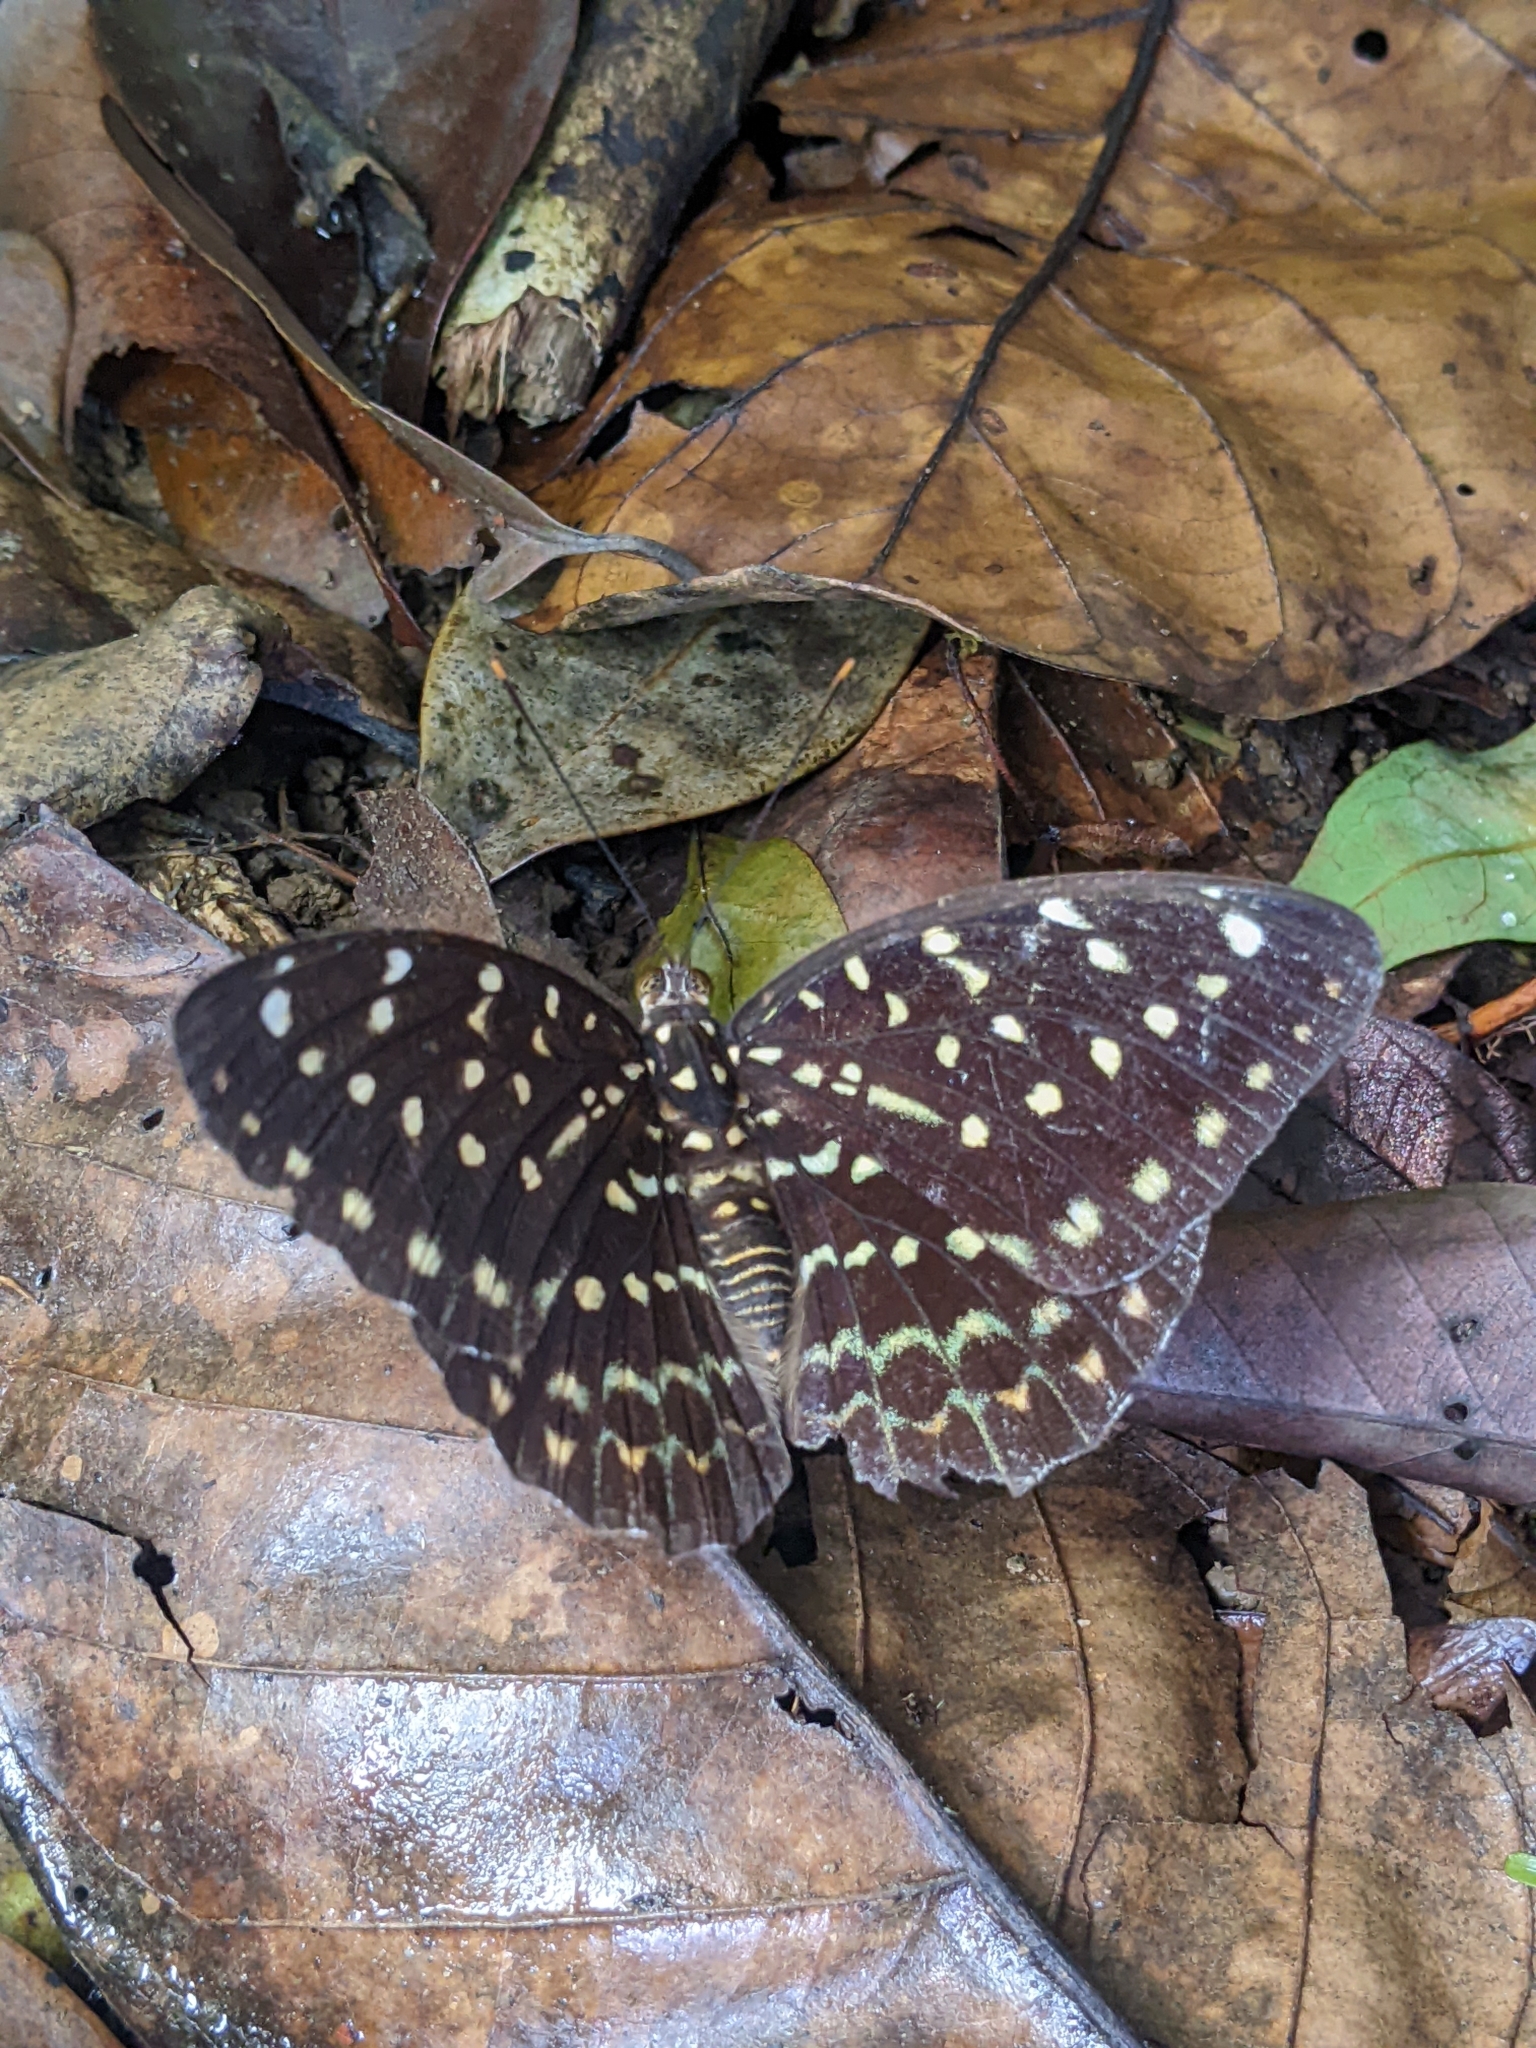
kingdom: Animalia
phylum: Arthropoda
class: Insecta
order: Lepidoptera
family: Nymphalidae
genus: Lexias
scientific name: Lexias pardalis
